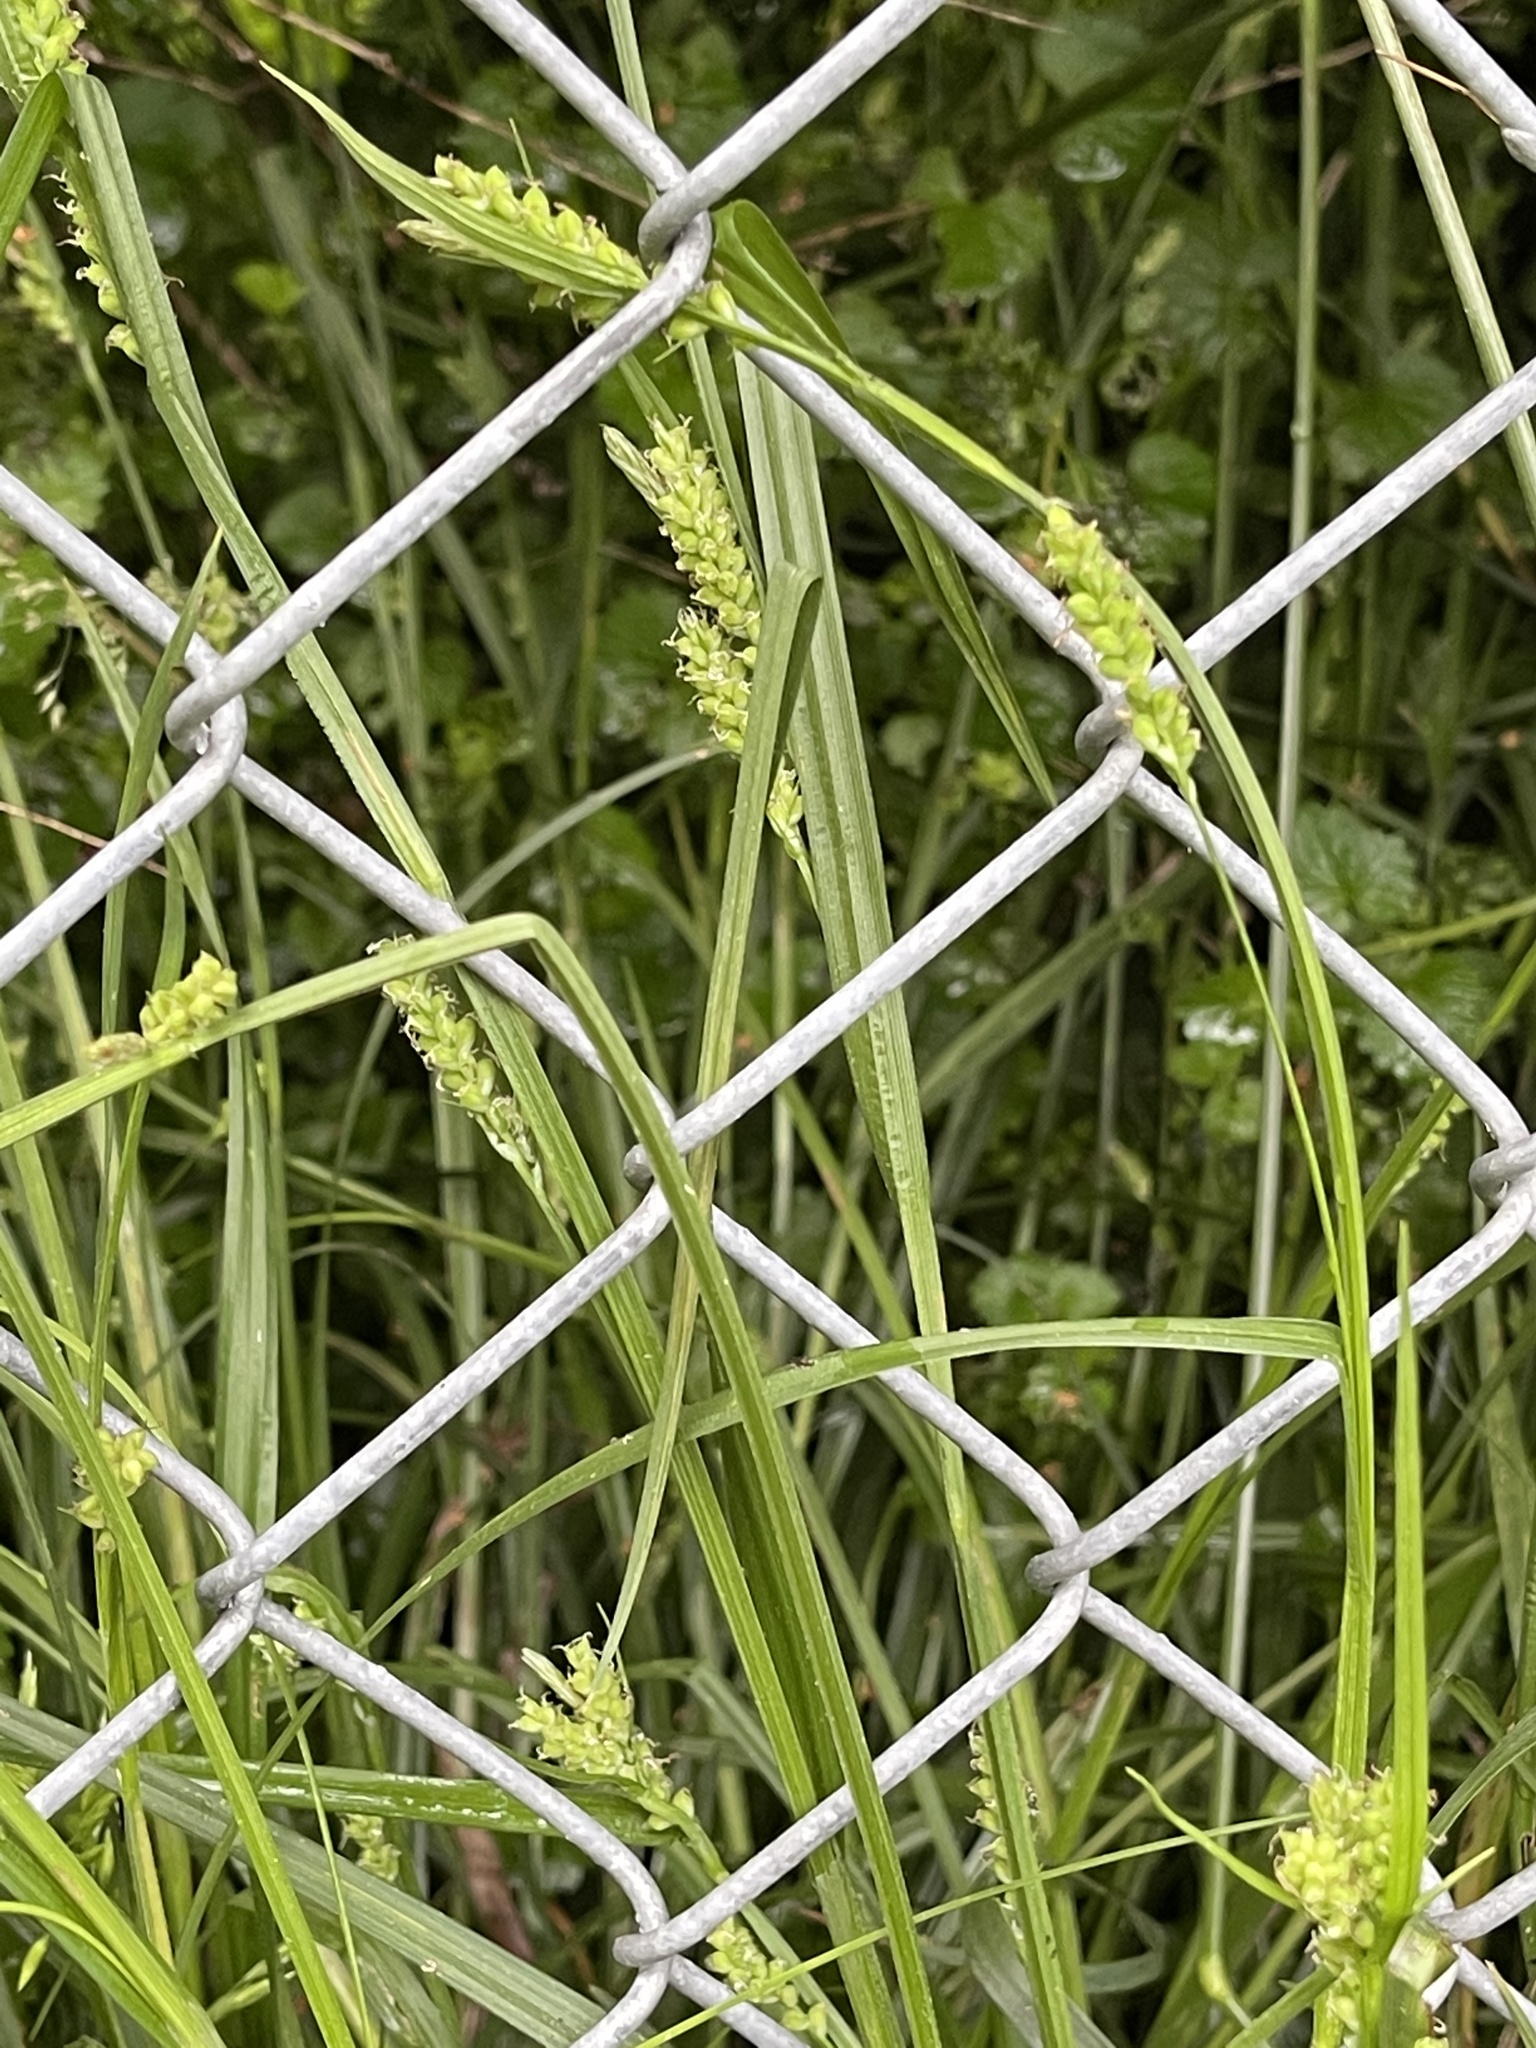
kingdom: Plantae
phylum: Tracheophyta
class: Liliopsida
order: Poales
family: Cyperaceae
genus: Carex
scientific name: Carex granularis
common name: Granular sedge
